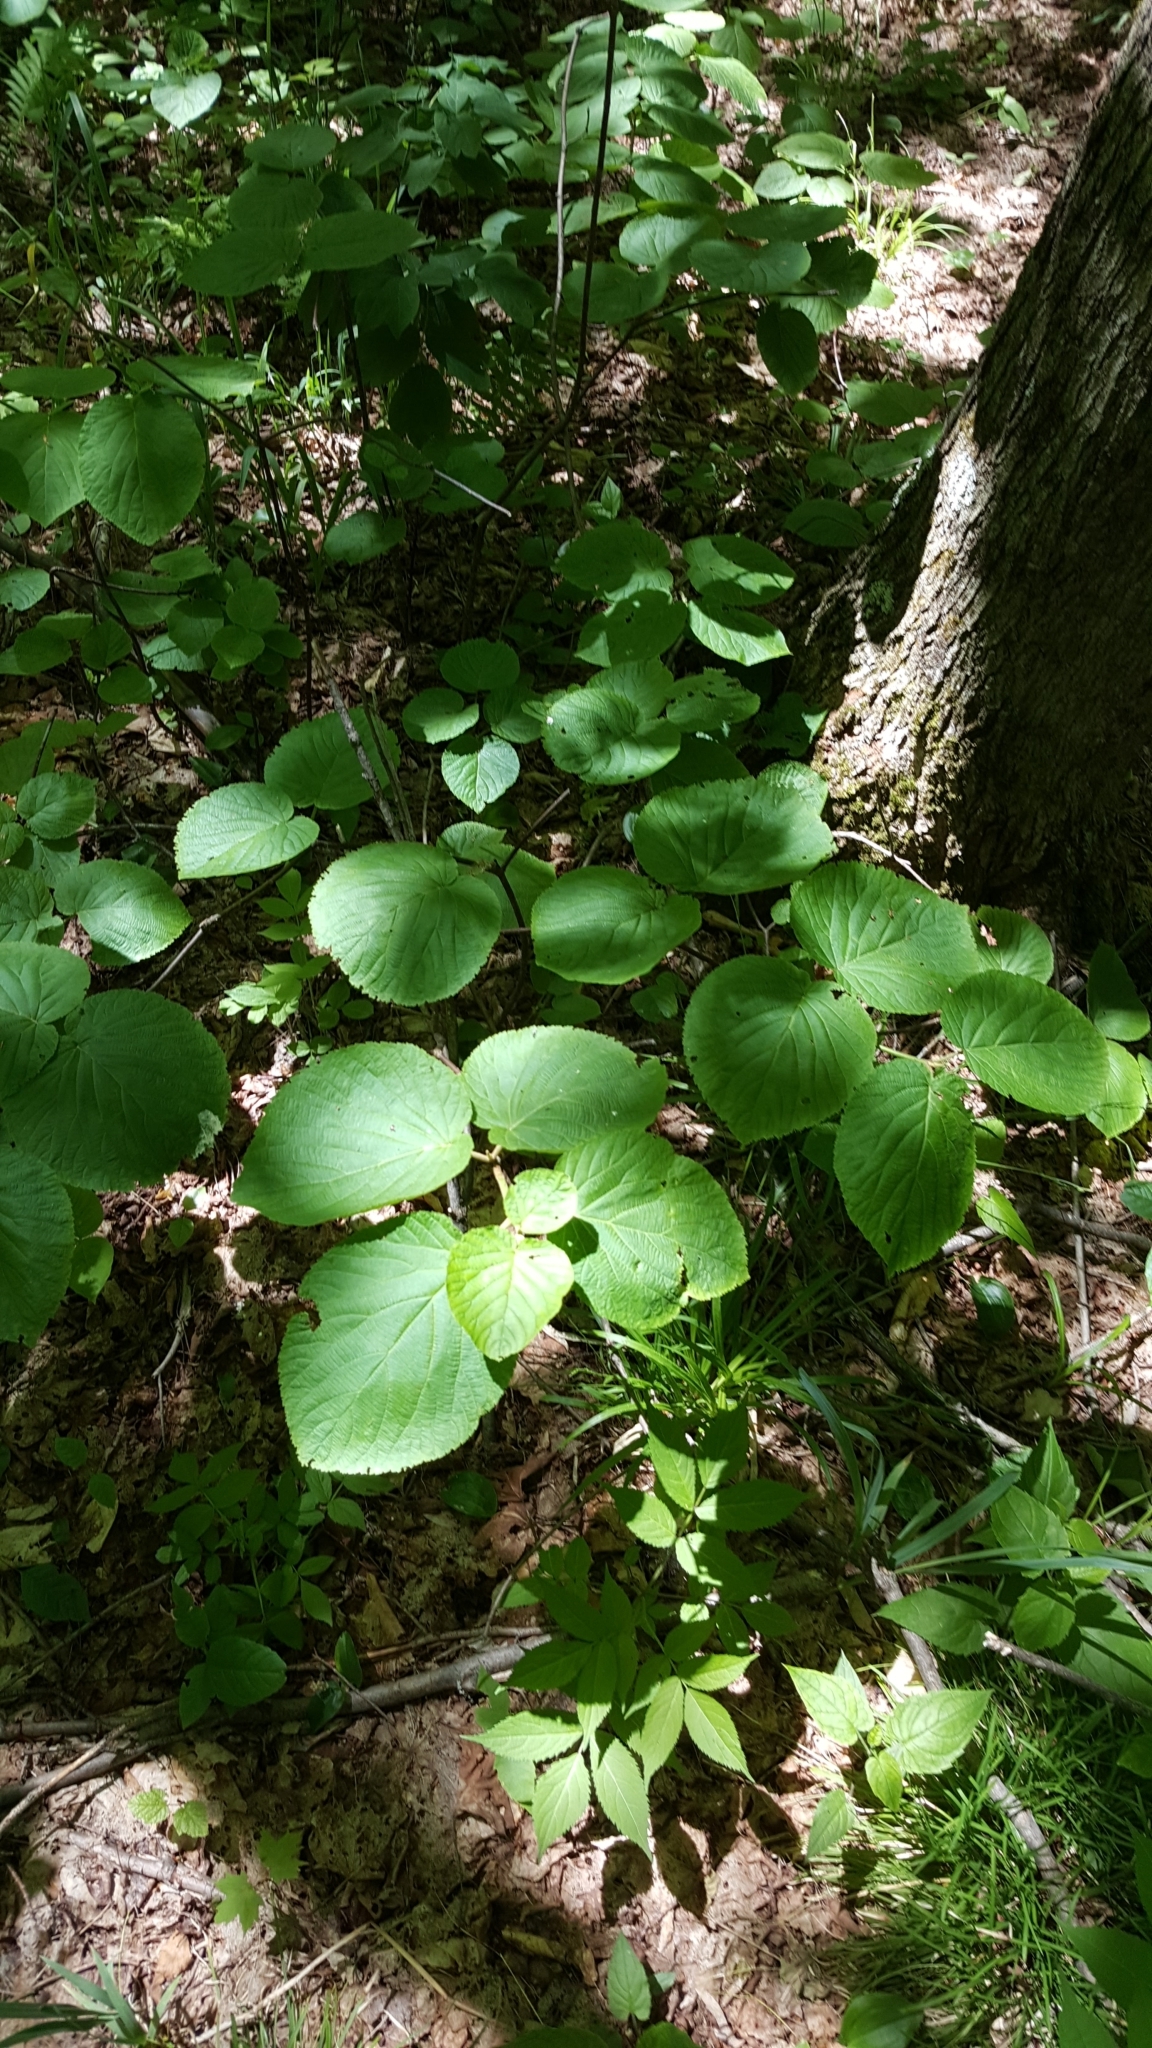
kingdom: Plantae
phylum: Tracheophyta
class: Magnoliopsida
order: Dipsacales
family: Viburnaceae
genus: Viburnum
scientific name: Viburnum lantanoides
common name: Hobblebush
